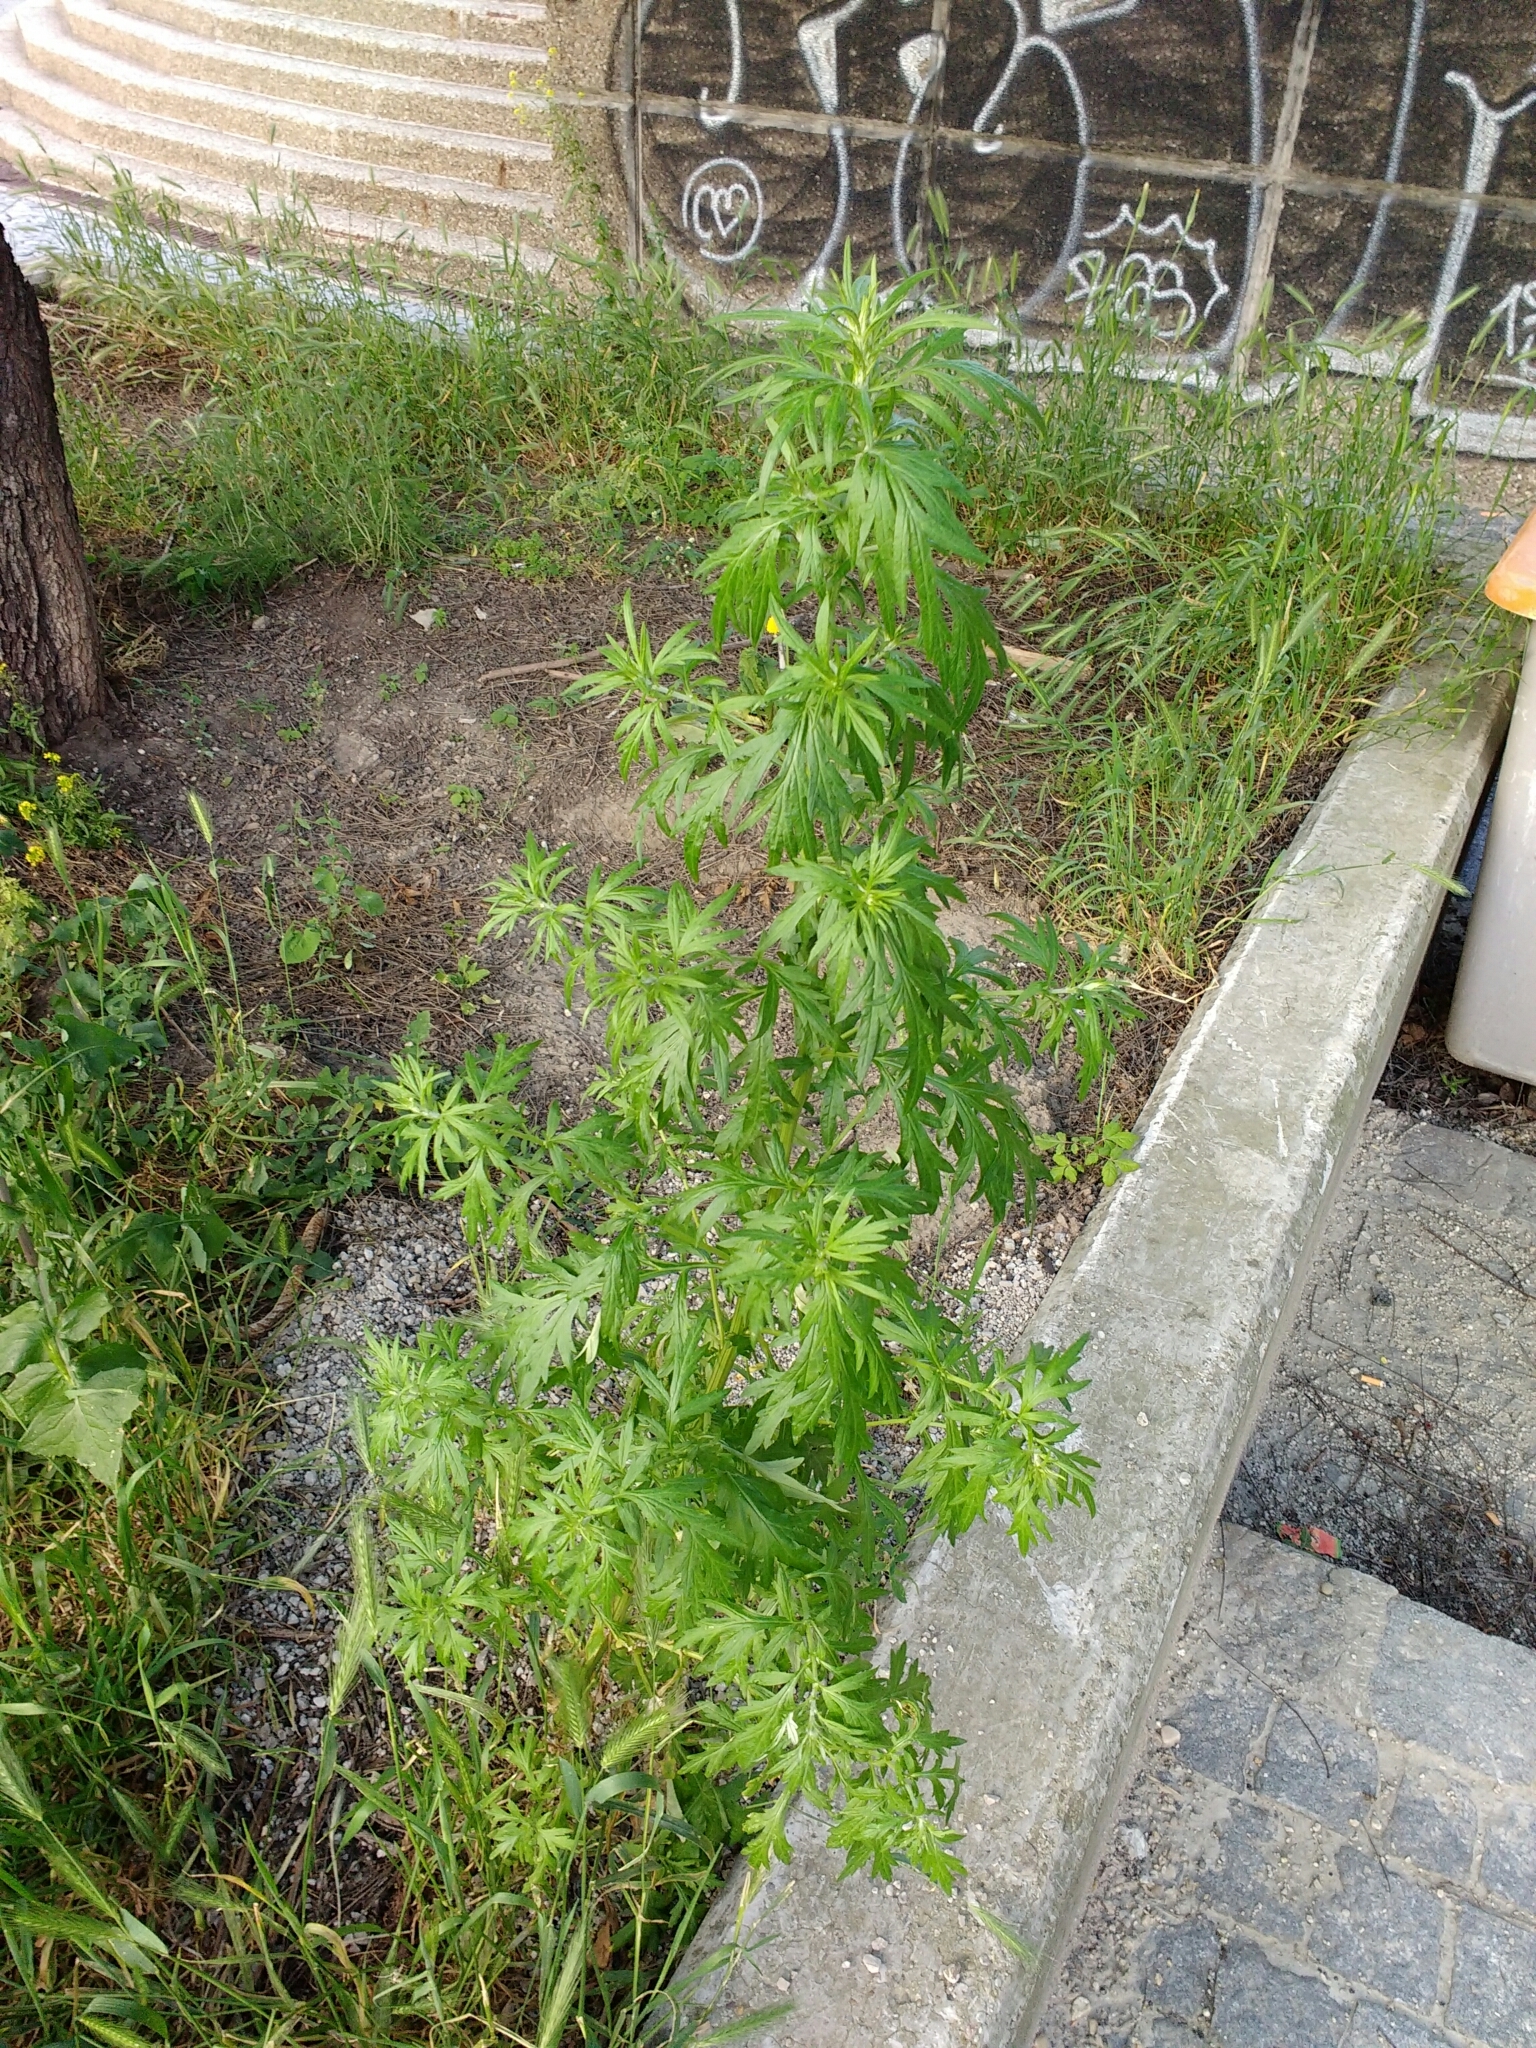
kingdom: Plantae
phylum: Tracheophyta
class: Magnoliopsida
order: Asterales
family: Asteraceae
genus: Artemisia
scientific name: Artemisia vulgaris
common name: Mugwort
